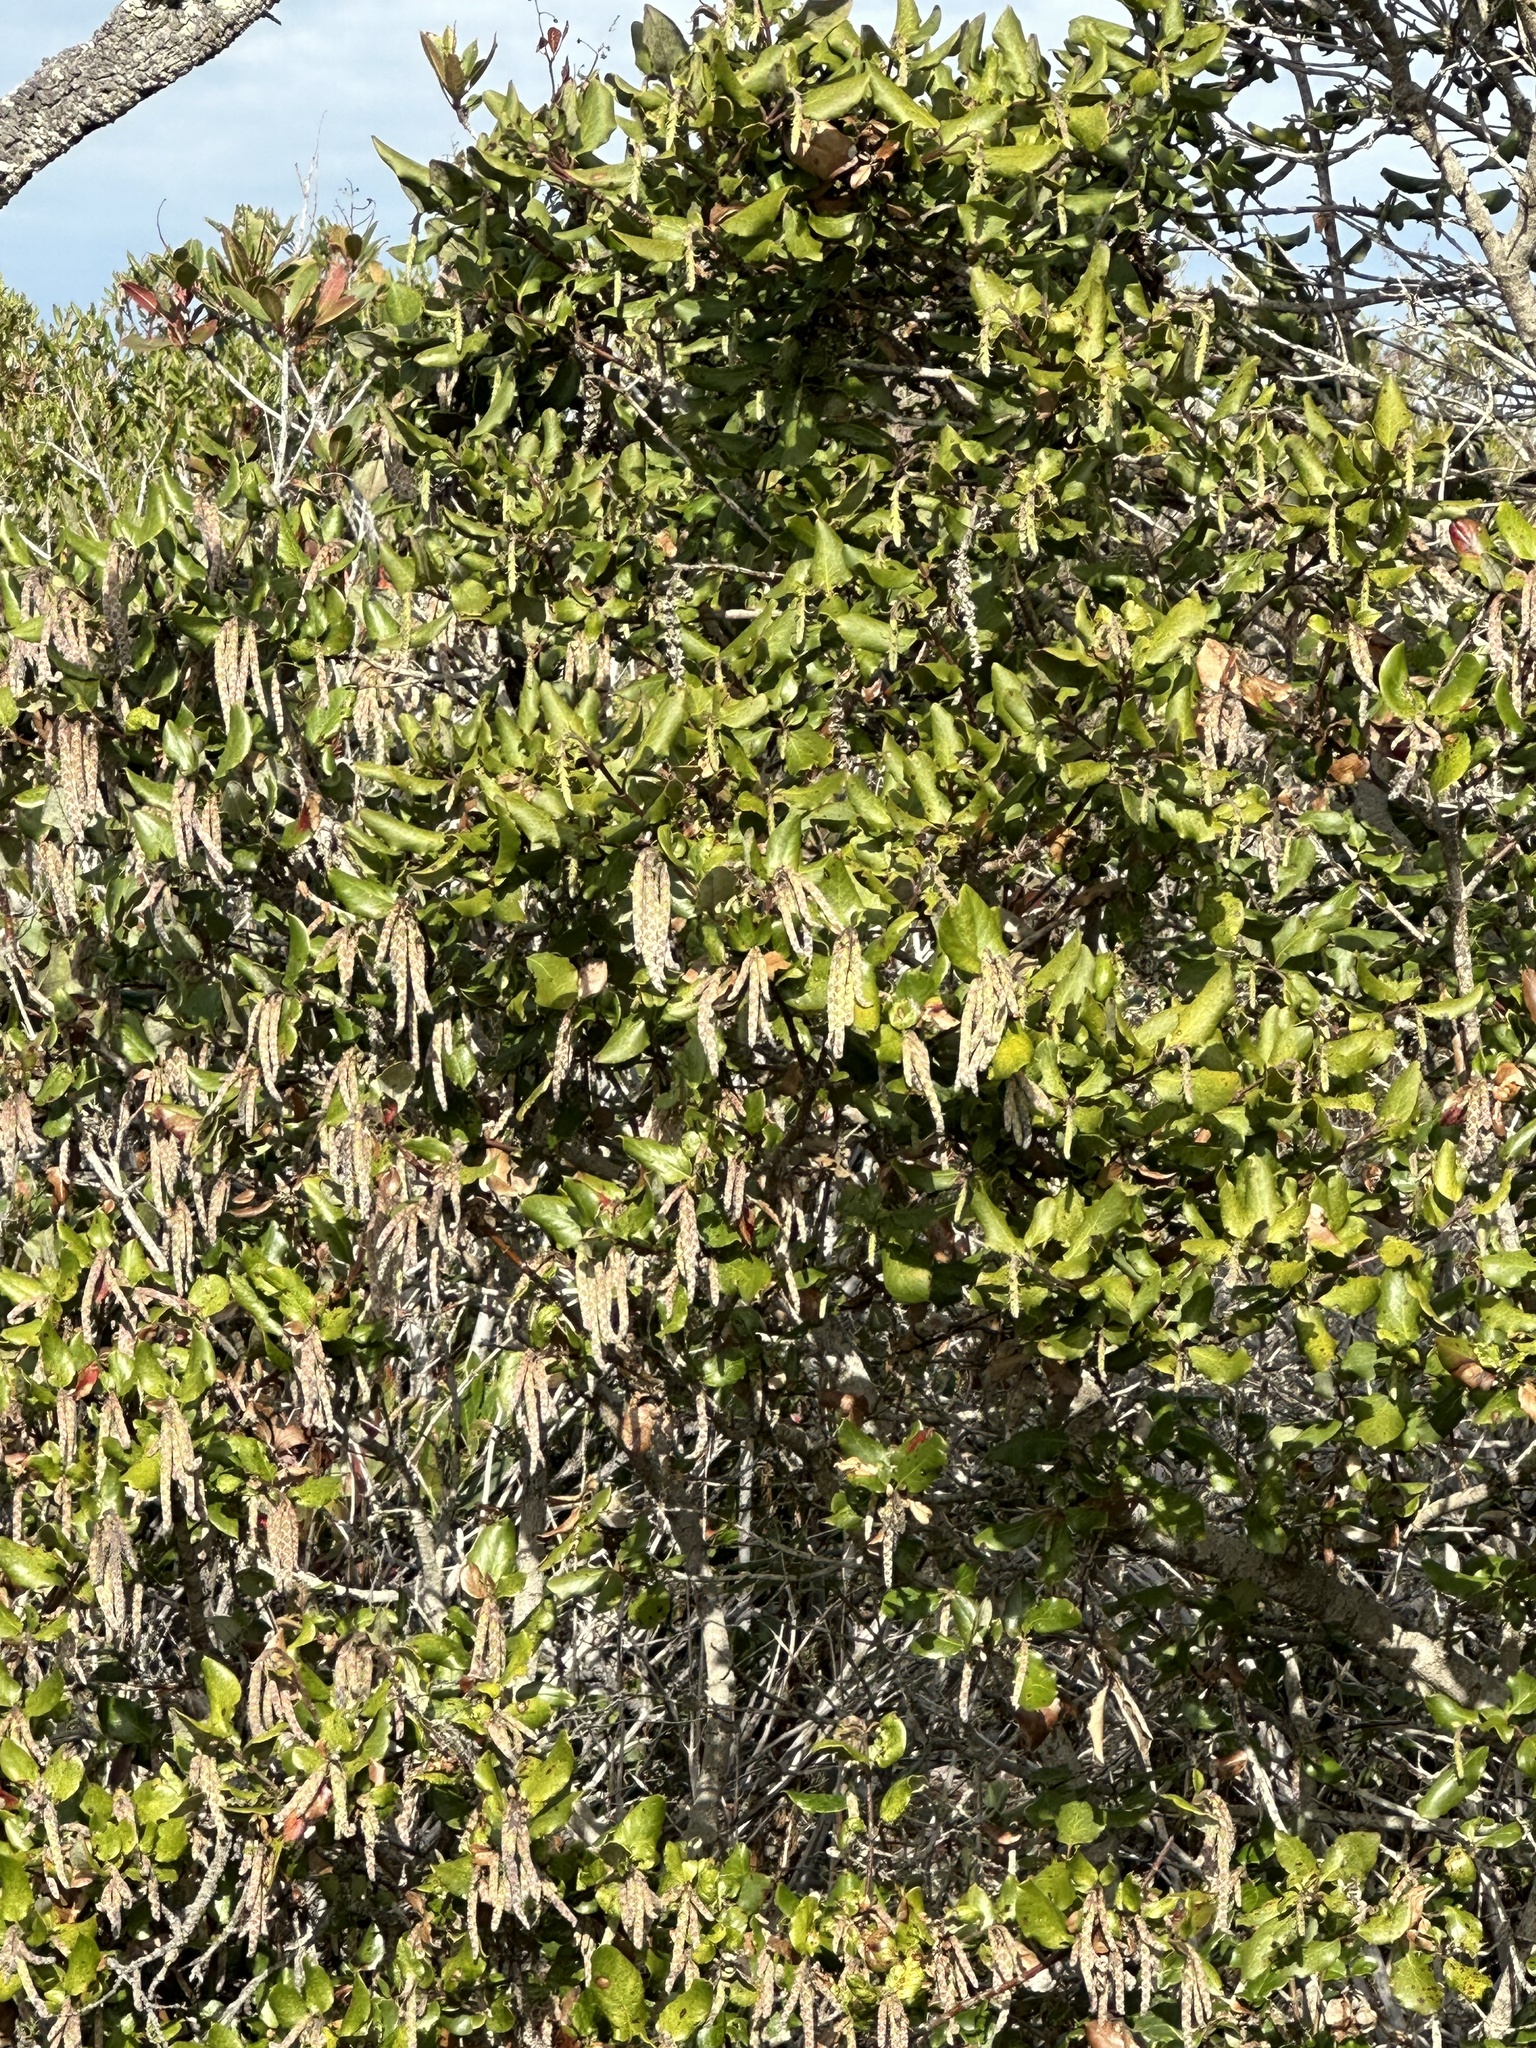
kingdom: Plantae
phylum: Tracheophyta
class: Magnoliopsida
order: Garryales
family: Garryaceae
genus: Garrya
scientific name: Garrya elliptica
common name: Silk-tassel
